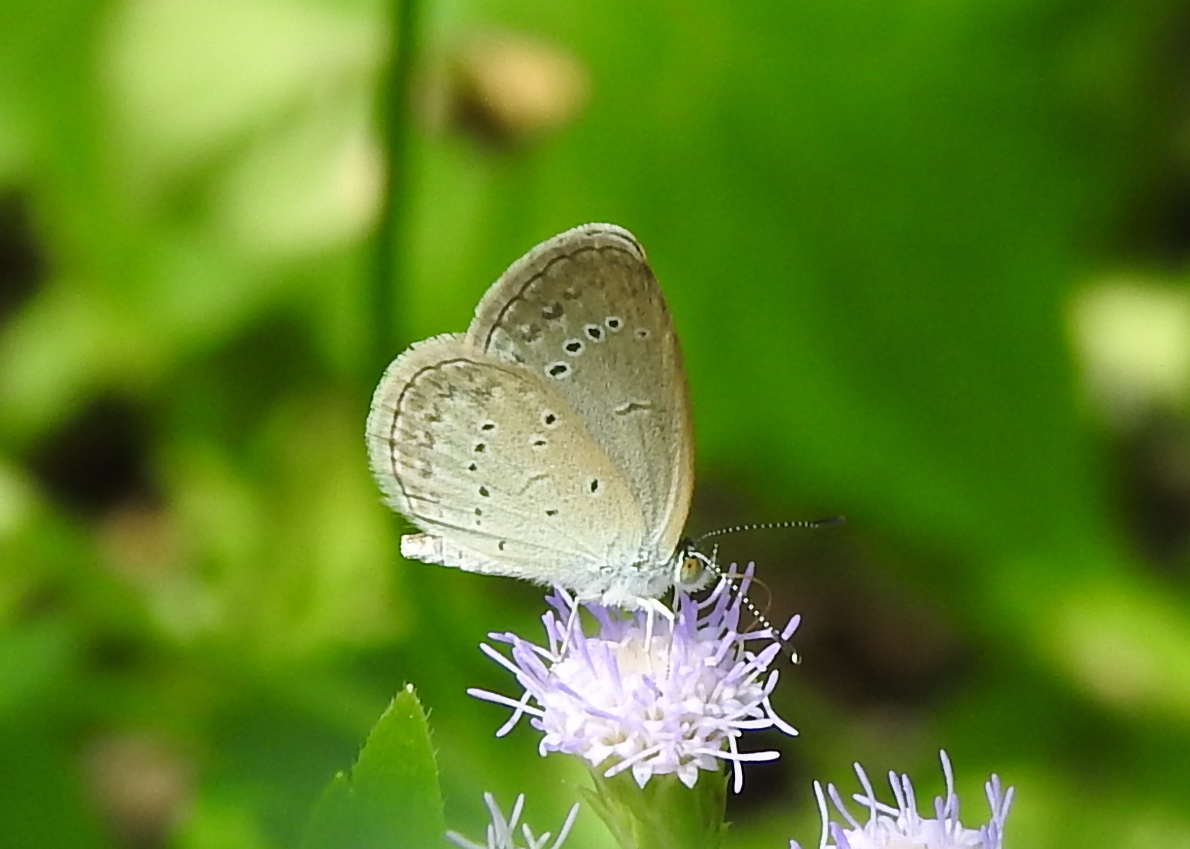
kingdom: Animalia
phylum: Arthropoda
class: Insecta
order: Lepidoptera
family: Lycaenidae
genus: Zizina
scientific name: Zizina otis
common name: Lesser grass blue
